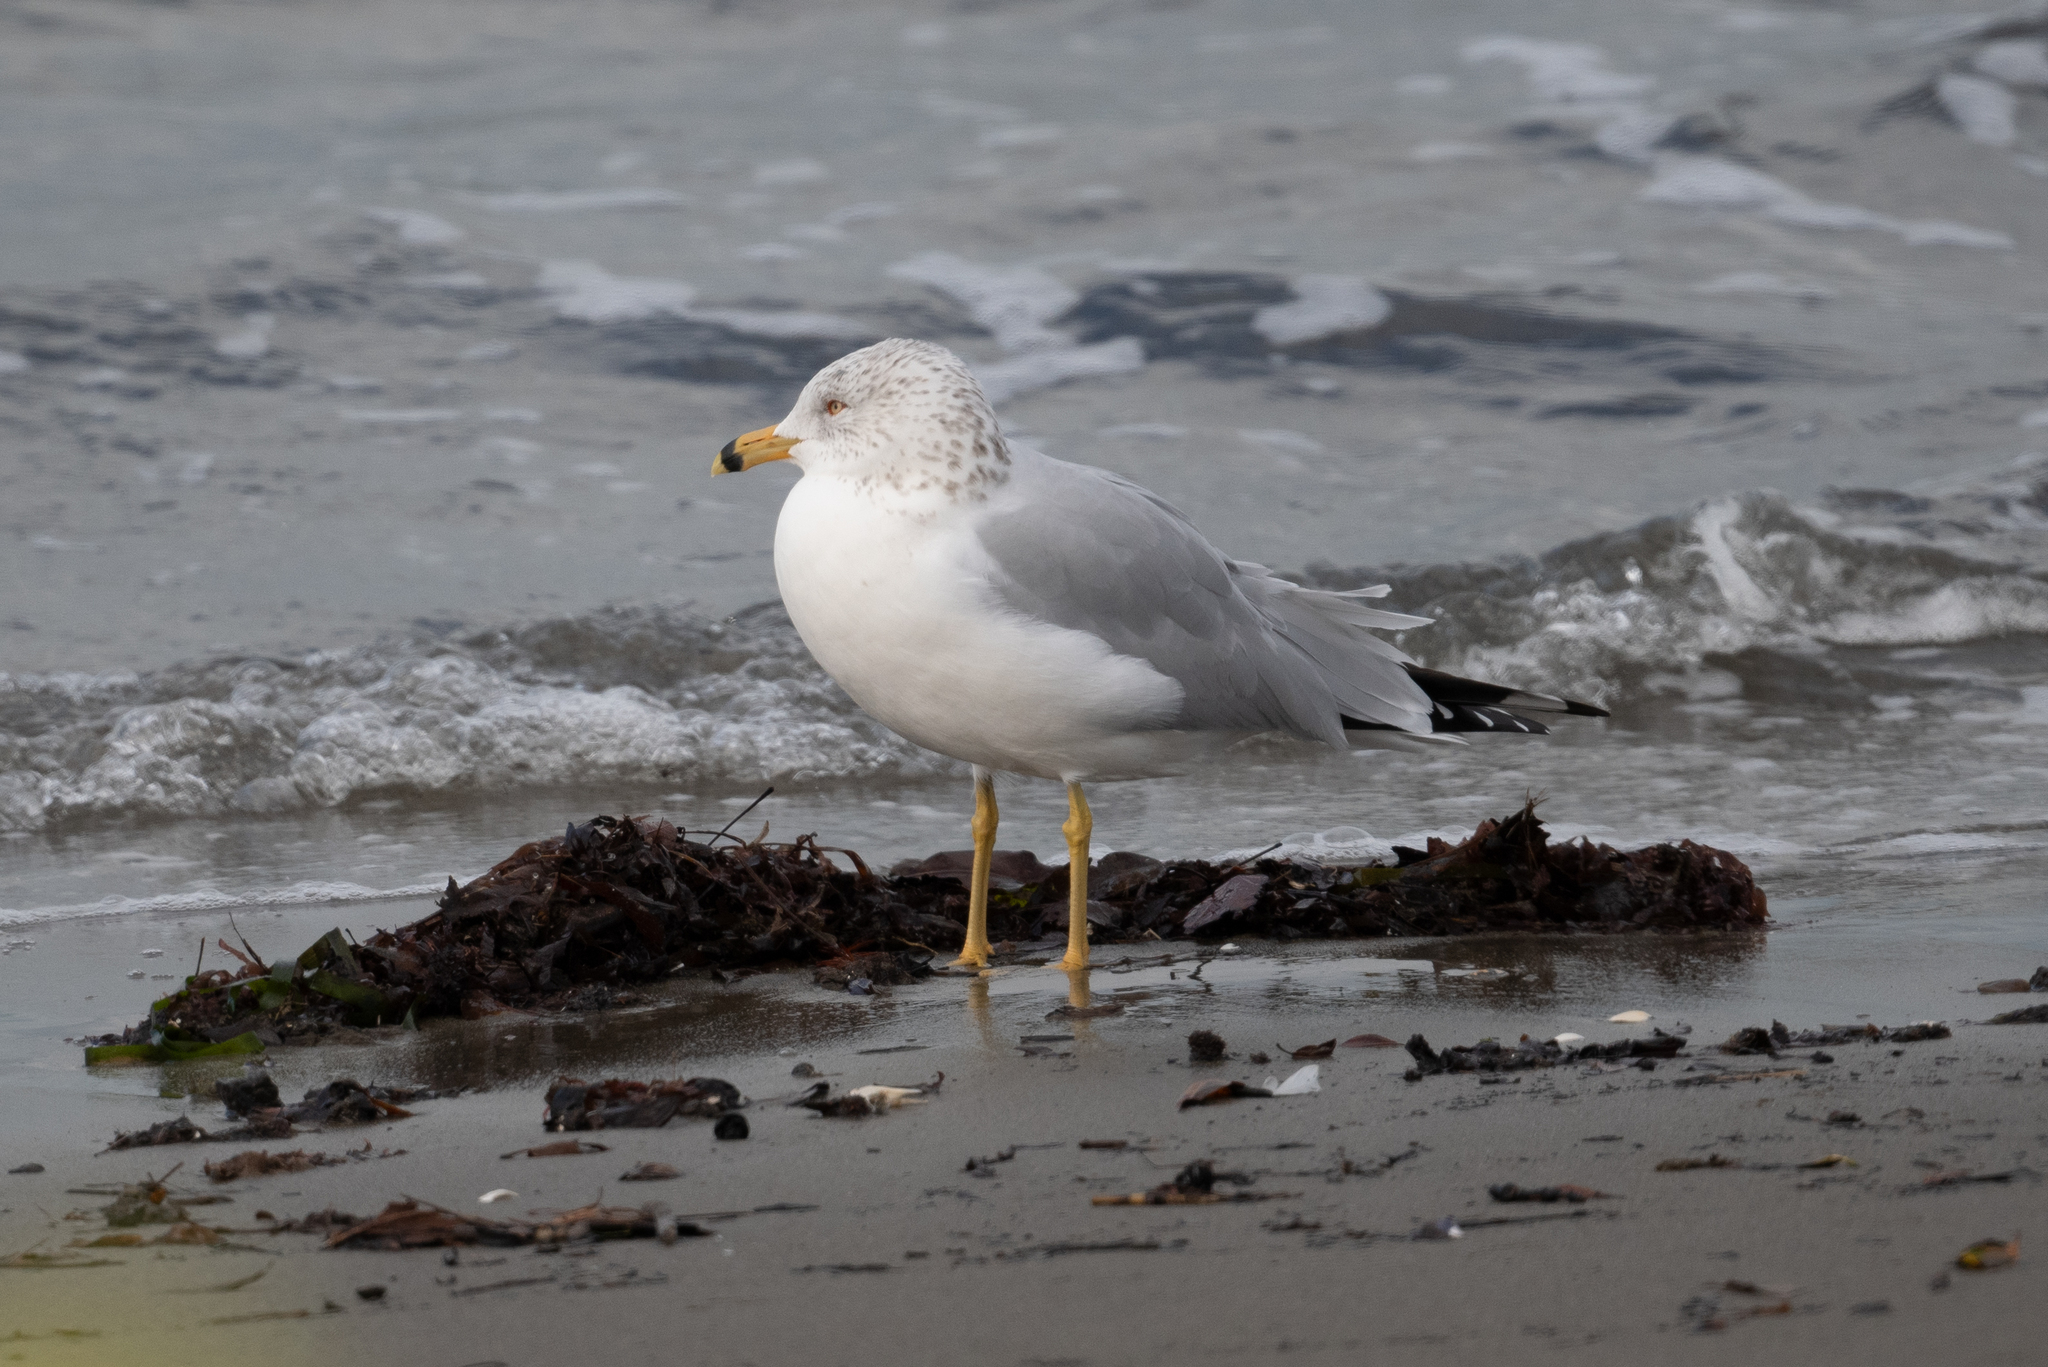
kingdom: Animalia
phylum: Chordata
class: Aves
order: Charadriiformes
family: Laridae
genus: Larus
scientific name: Larus delawarensis
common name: Ring-billed gull
